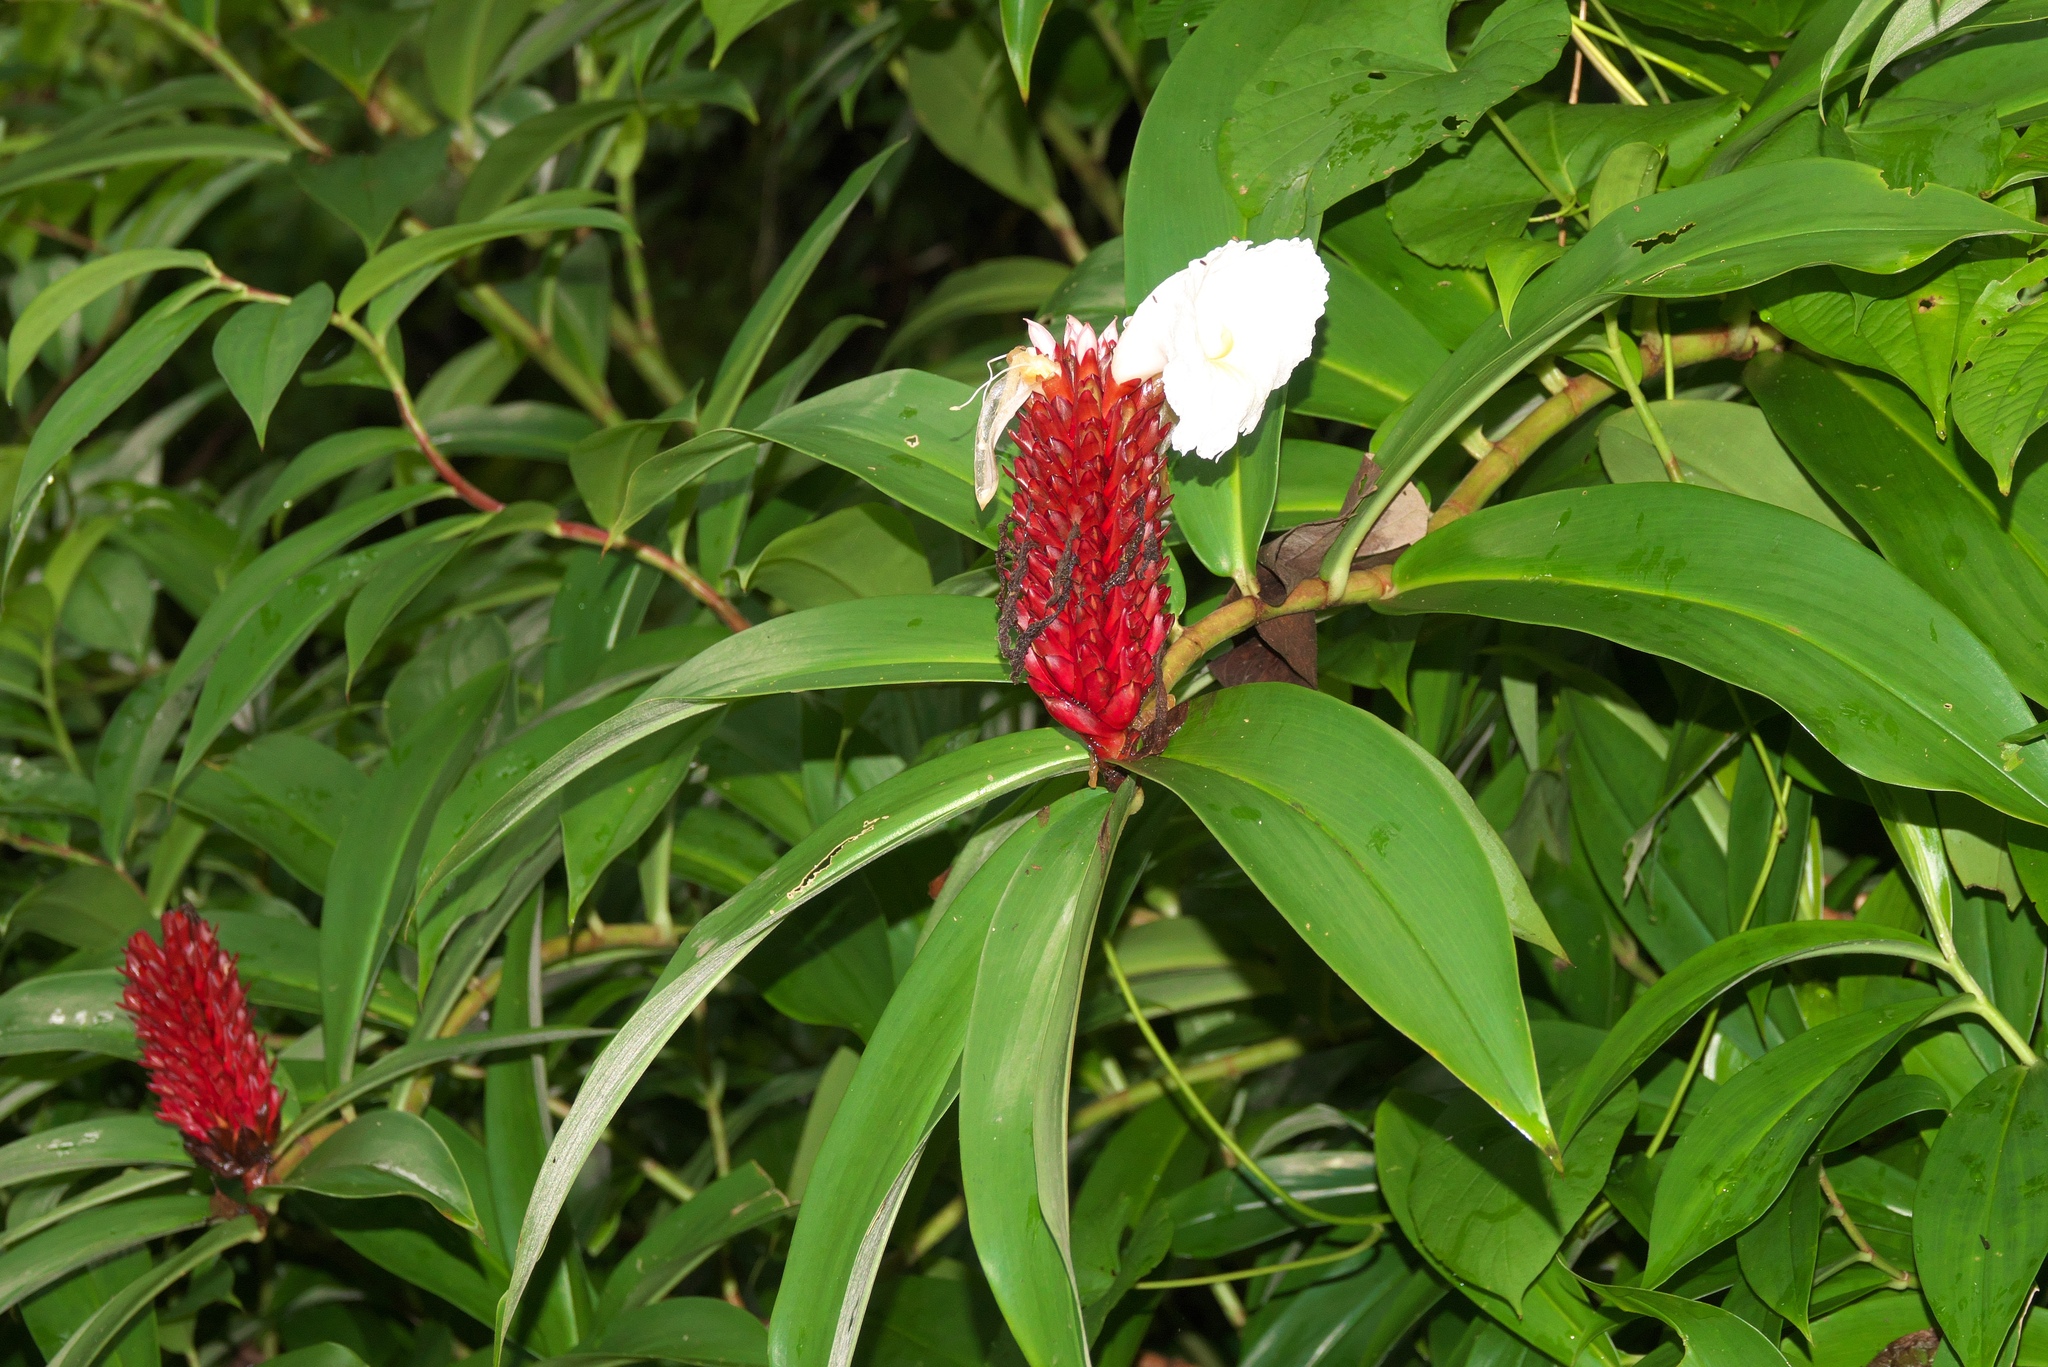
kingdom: Plantae
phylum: Tracheophyta
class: Liliopsida
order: Zingiberales
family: Costaceae
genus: Hellenia
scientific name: Hellenia speciosa
